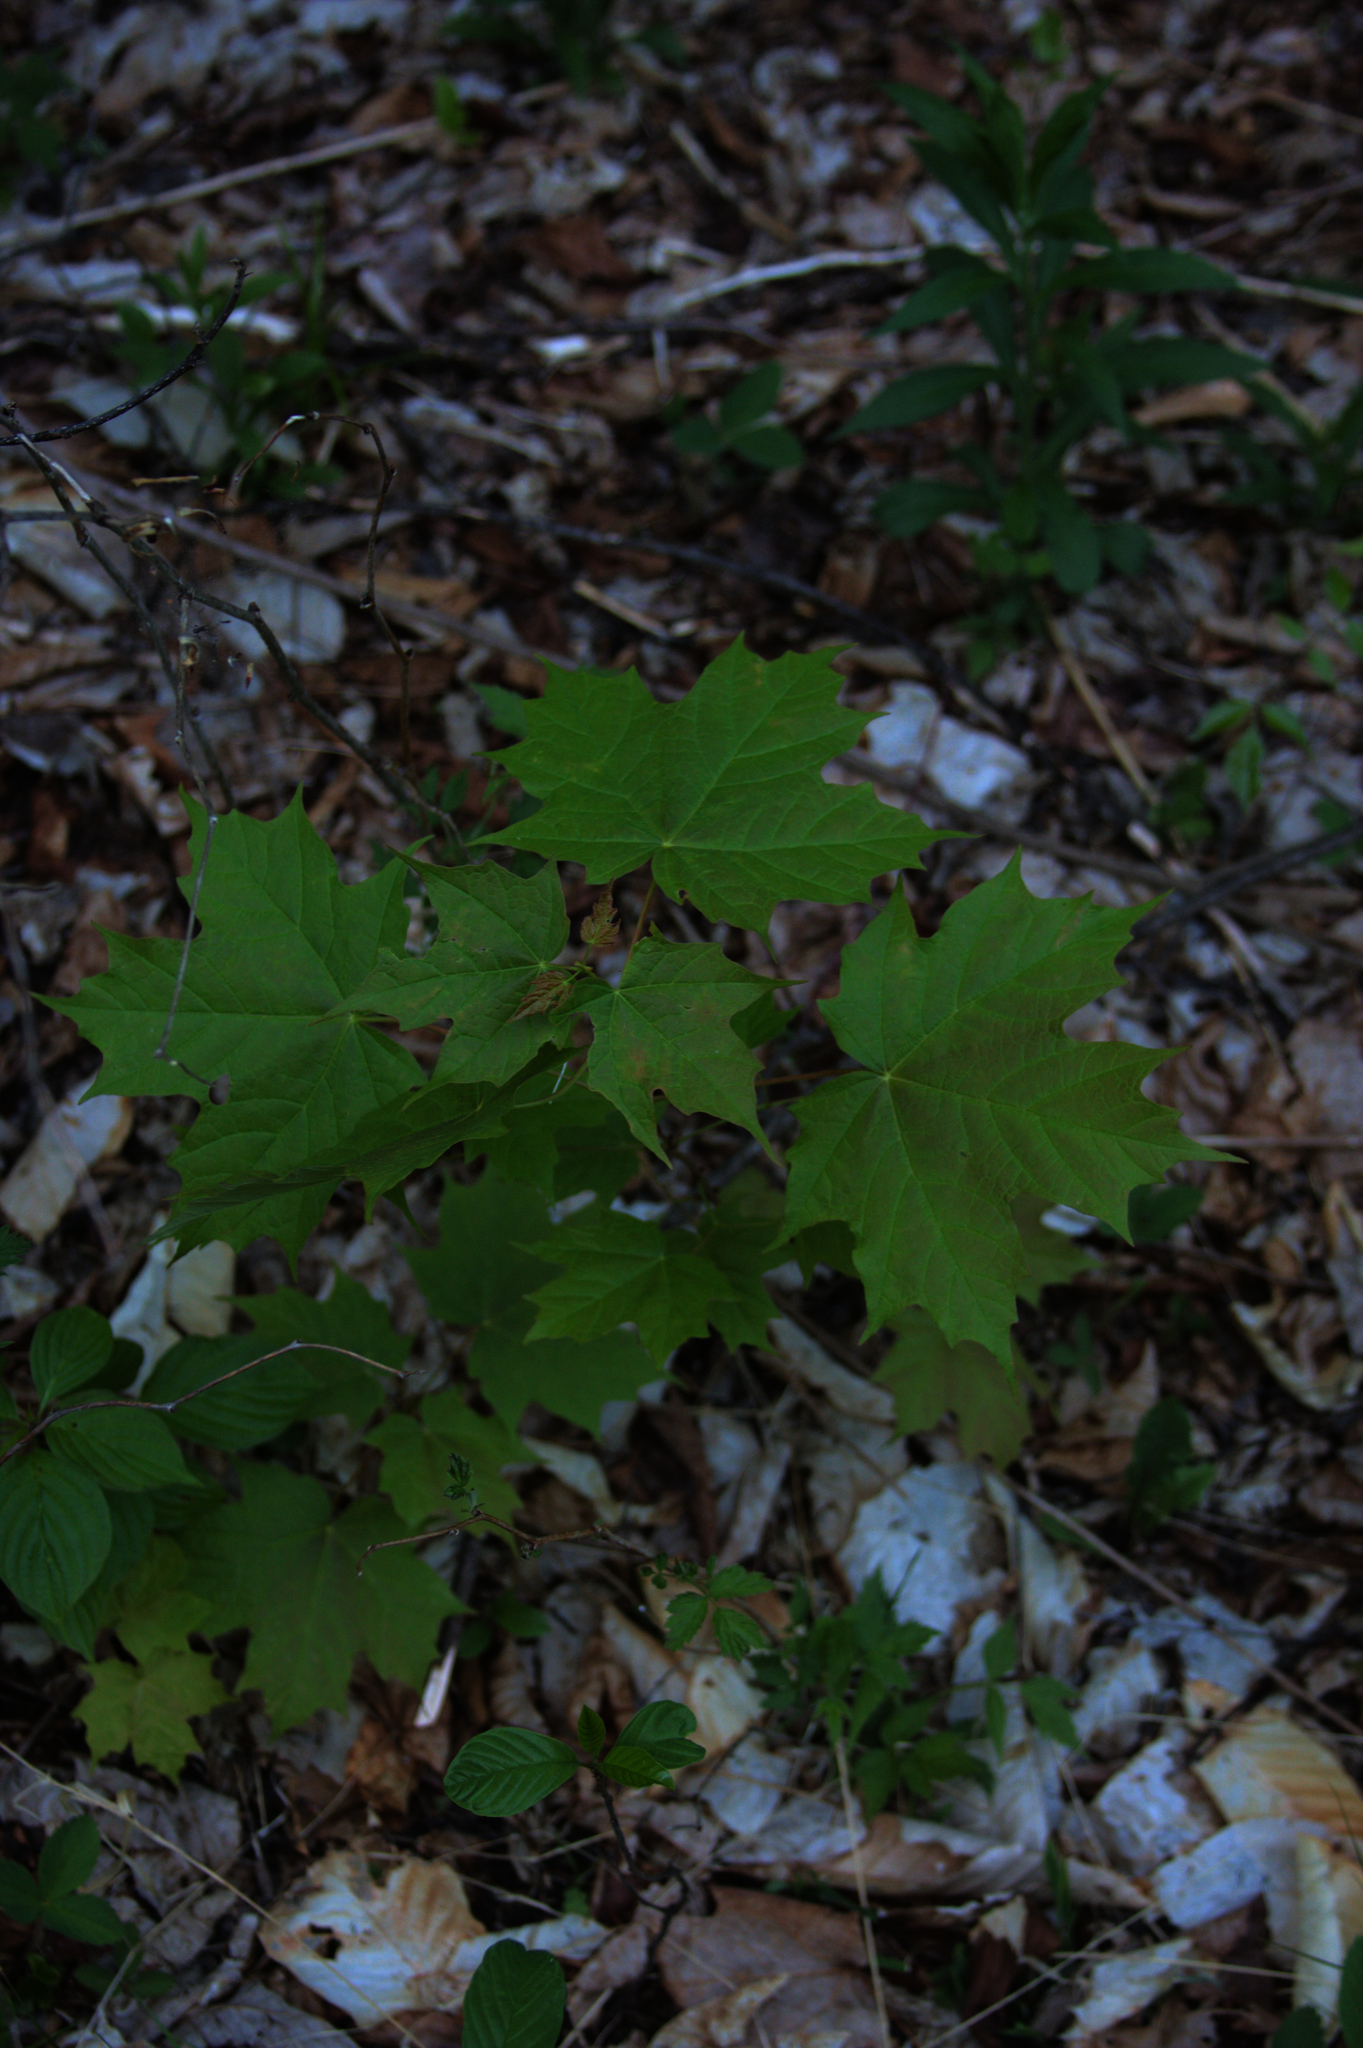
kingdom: Plantae
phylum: Tracheophyta
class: Magnoliopsida
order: Sapindales
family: Sapindaceae
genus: Acer
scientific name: Acer saccharum
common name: Sugar maple
